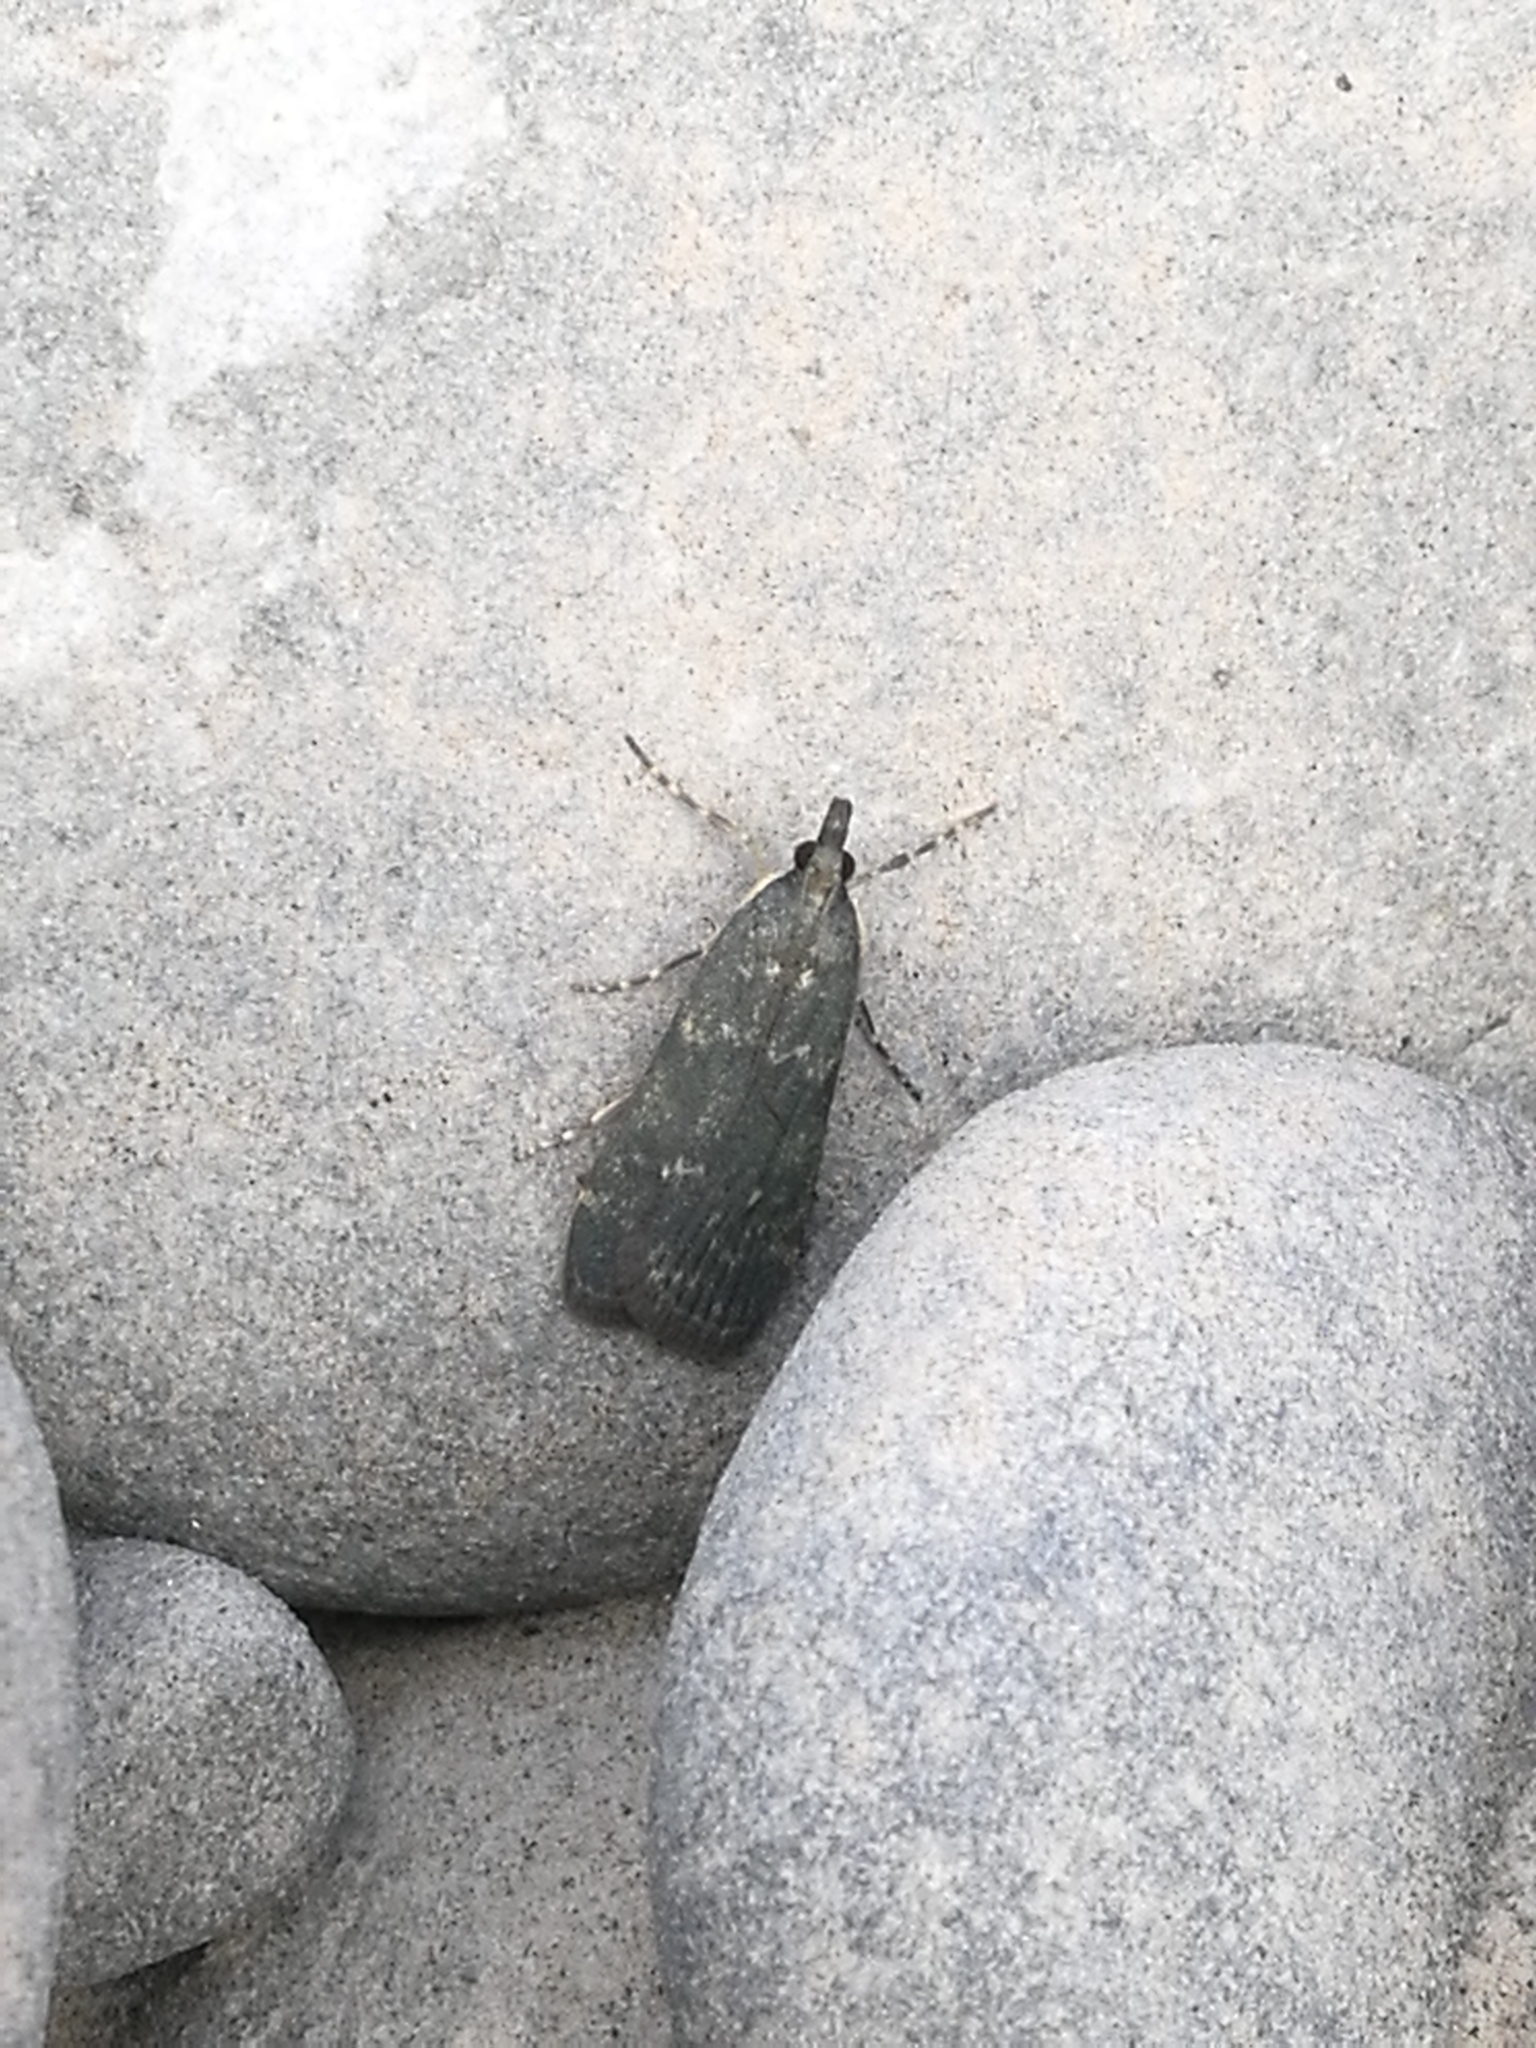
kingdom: Animalia
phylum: Arthropoda
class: Insecta
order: Lepidoptera
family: Crambidae
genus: Eudonia
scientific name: Eudonia cataxesta
